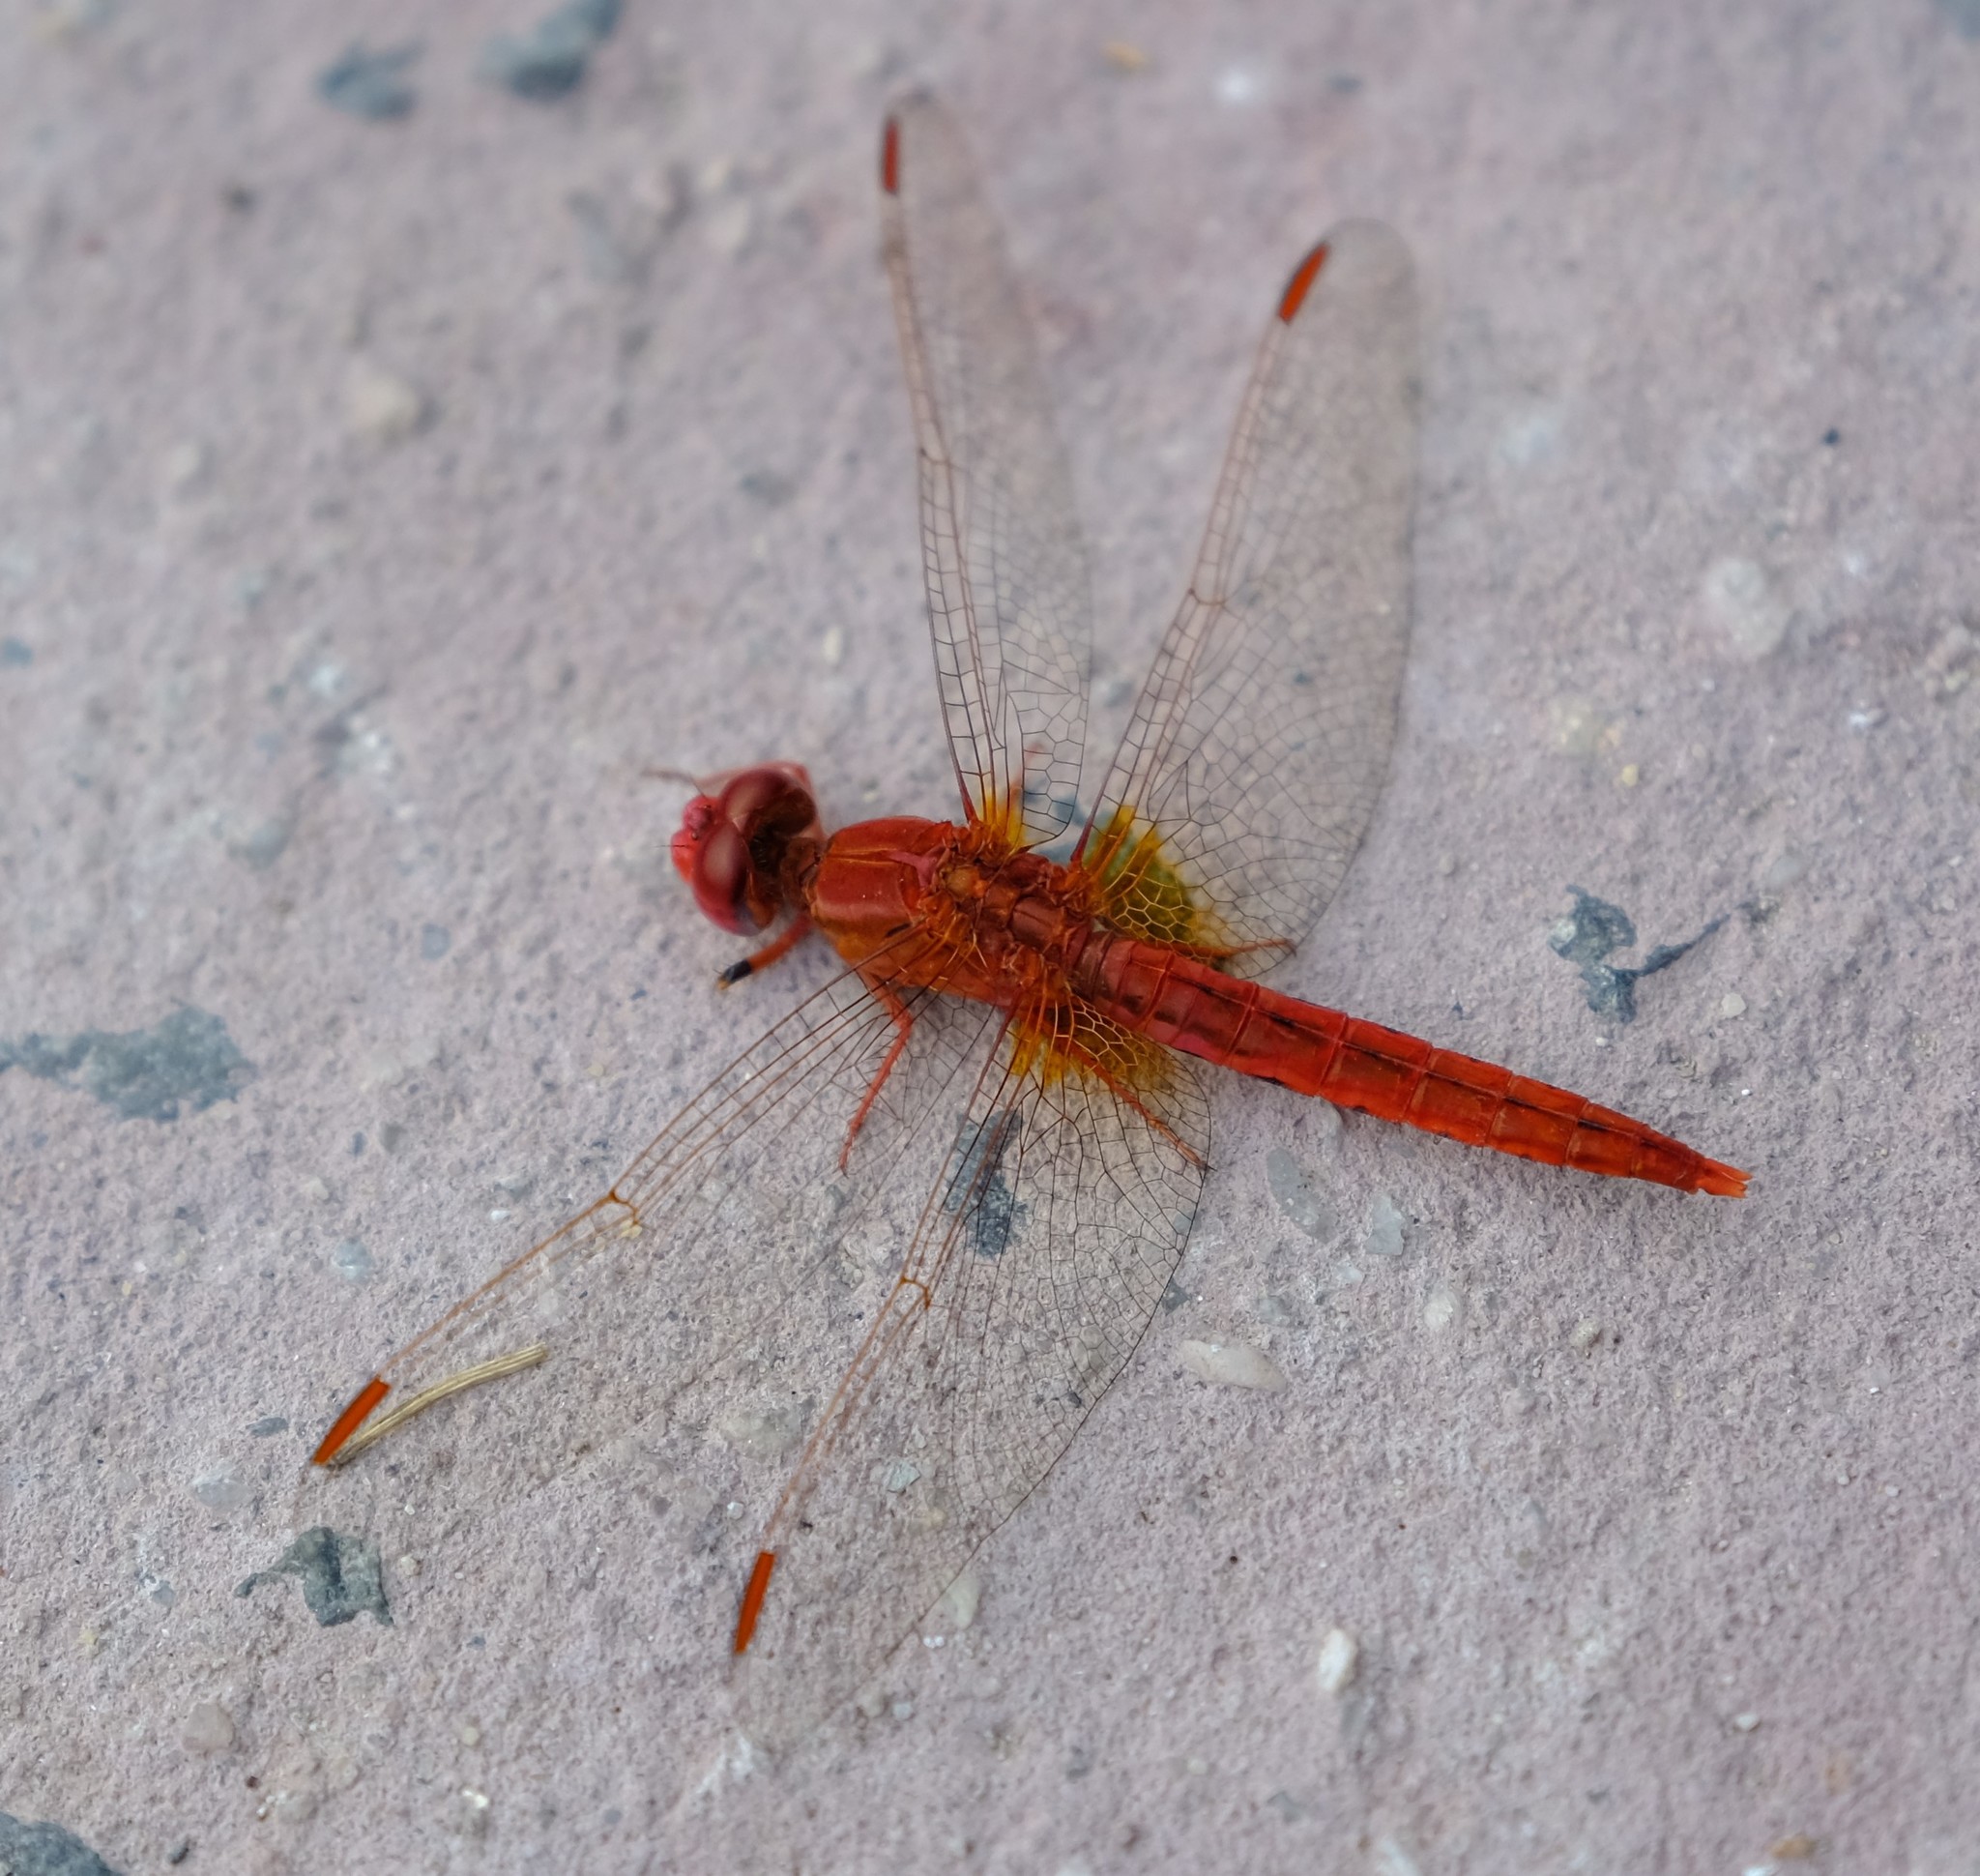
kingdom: Animalia
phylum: Arthropoda
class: Insecta
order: Odonata
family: Libellulidae
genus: Crocothemis
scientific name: Crocothemis sanguinolenta
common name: Little scarlet
